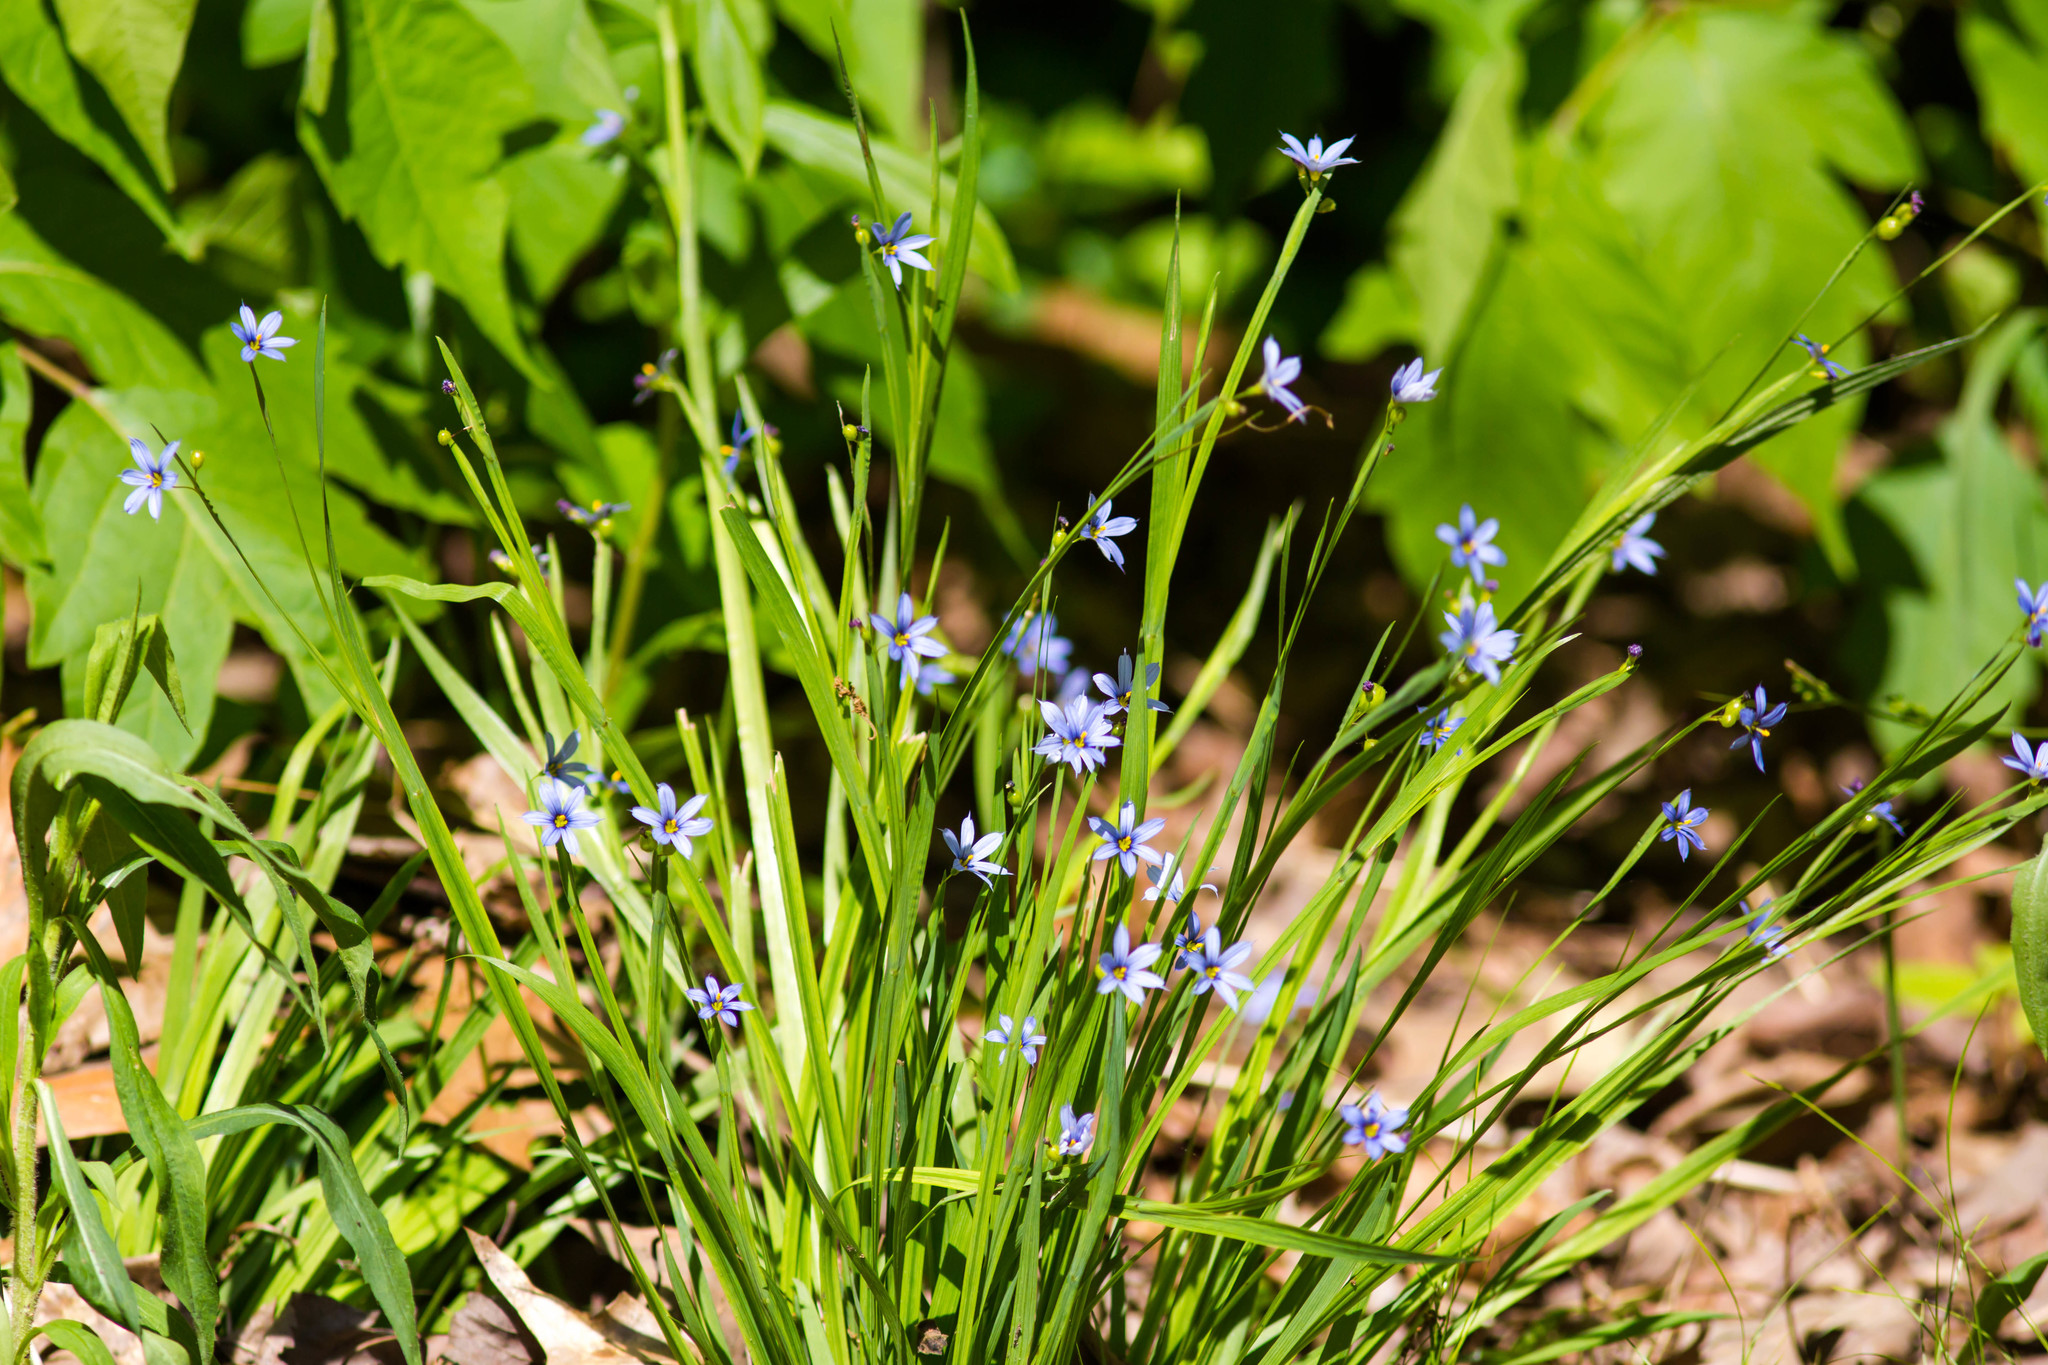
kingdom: Plantae
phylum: Tracheophyta
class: Liliopsida
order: Asparagales
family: Iridaceae
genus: Sisyrinchium
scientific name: Sisyrinchium angustifolium
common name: Narrow-leaf blue-eyed-grass
